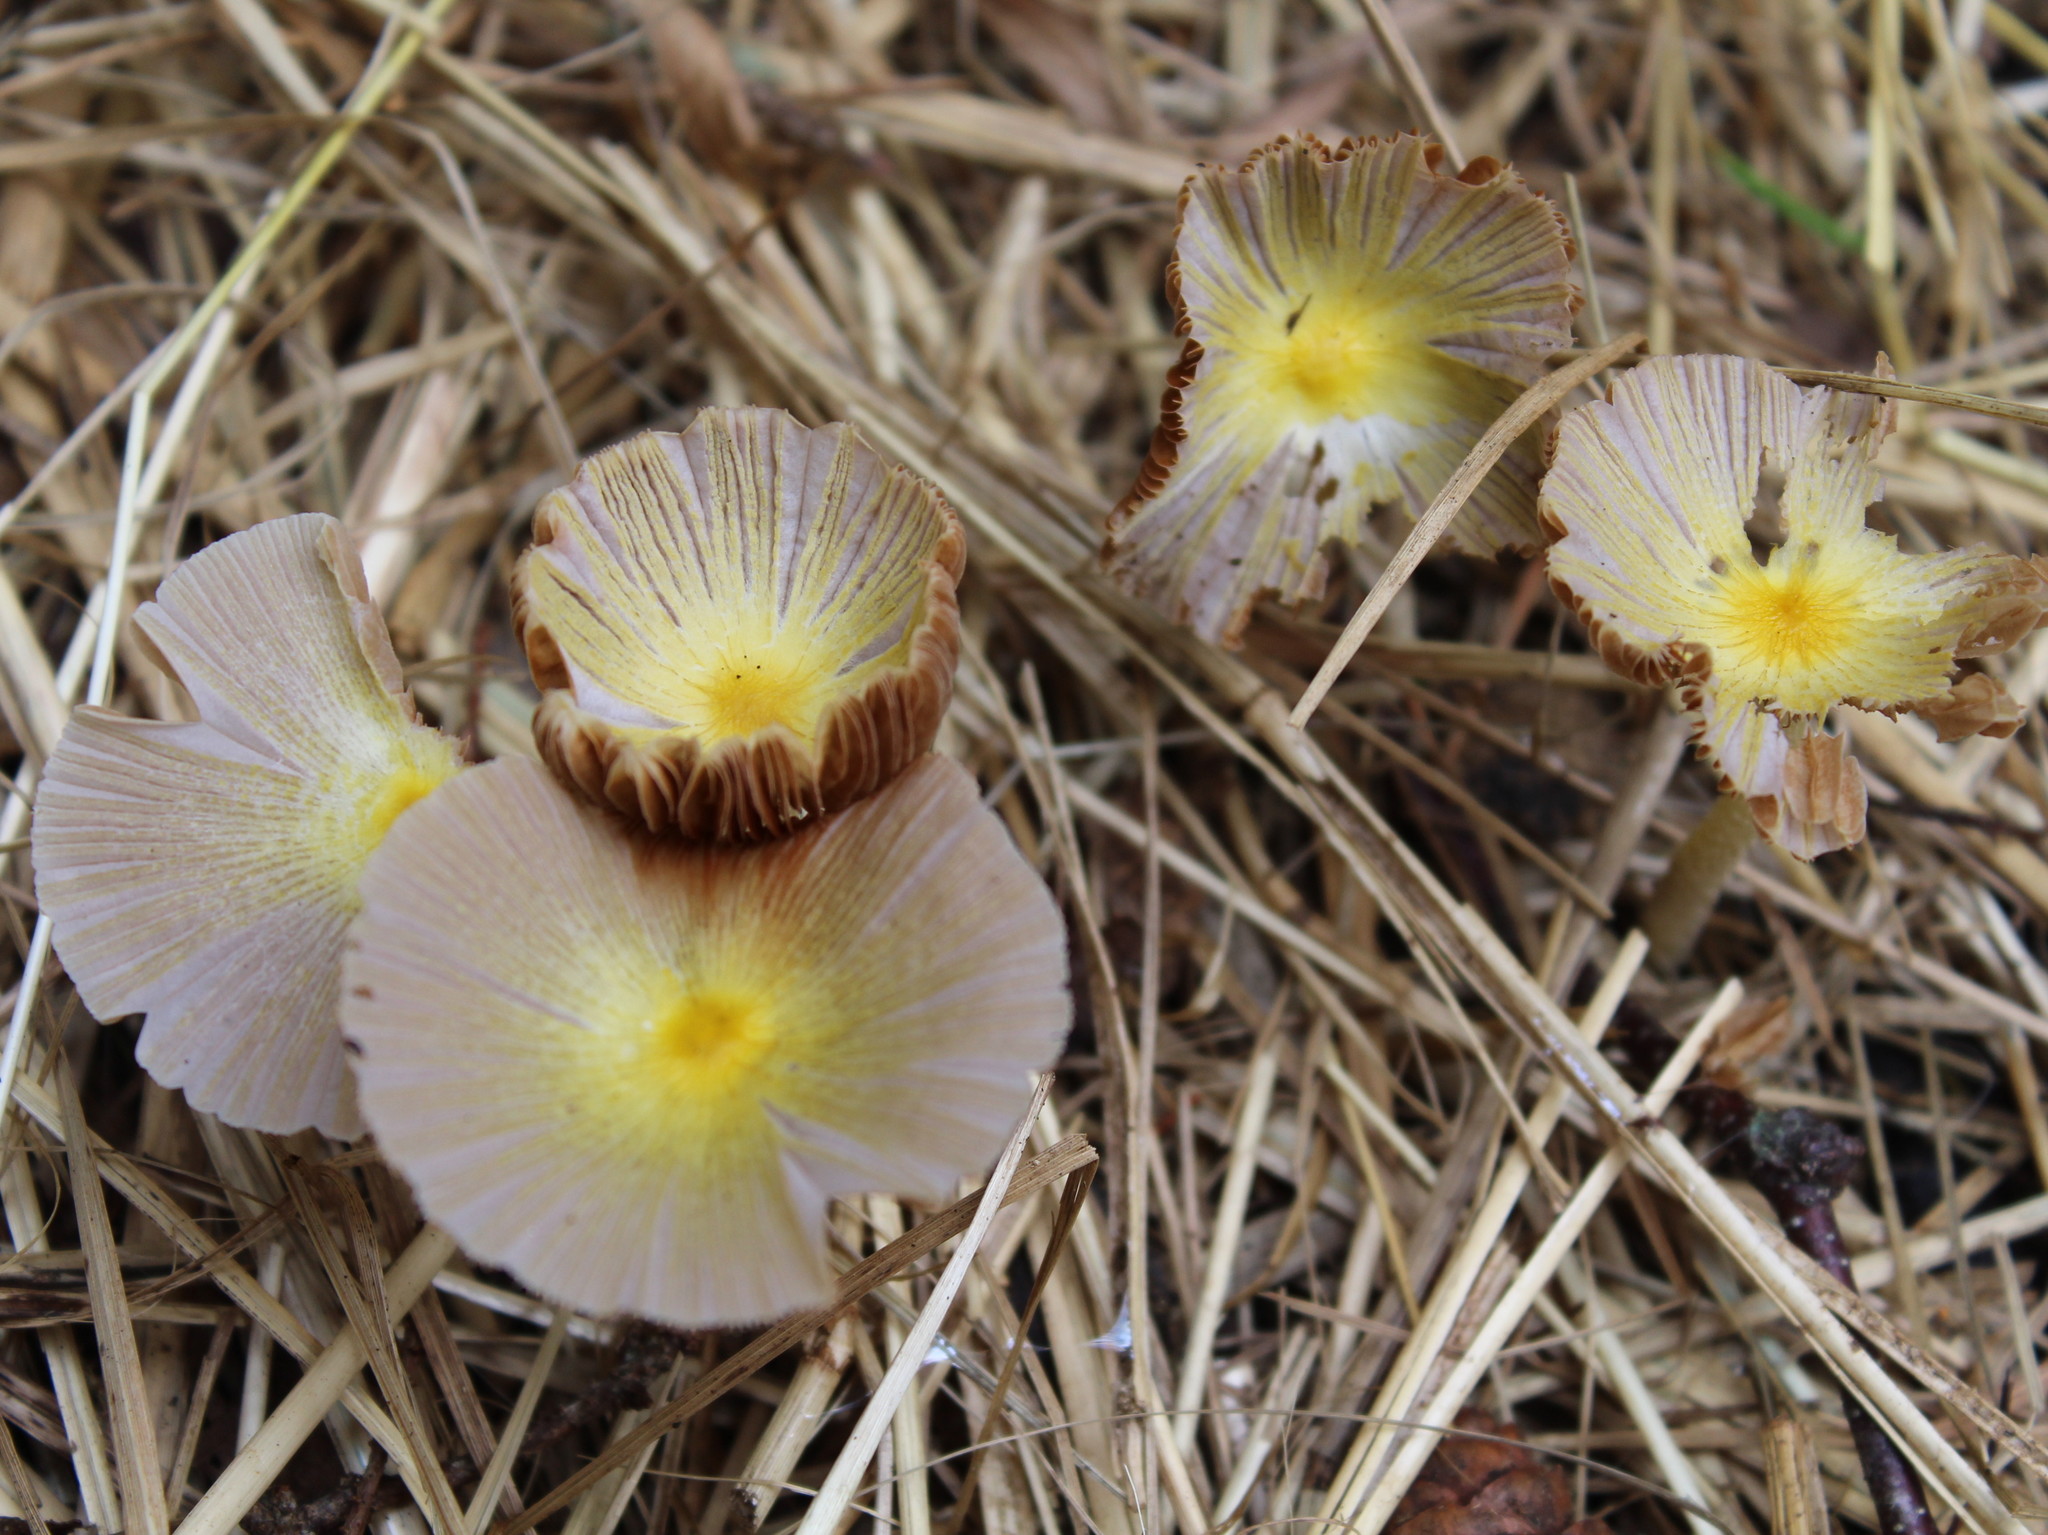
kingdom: Fungi
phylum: Basidiomycota
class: Agaricomycetes
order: Agaricales
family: Bolbitiaceae
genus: Bolbitius
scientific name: Bolbitius titubans
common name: Yellow fieldcap
